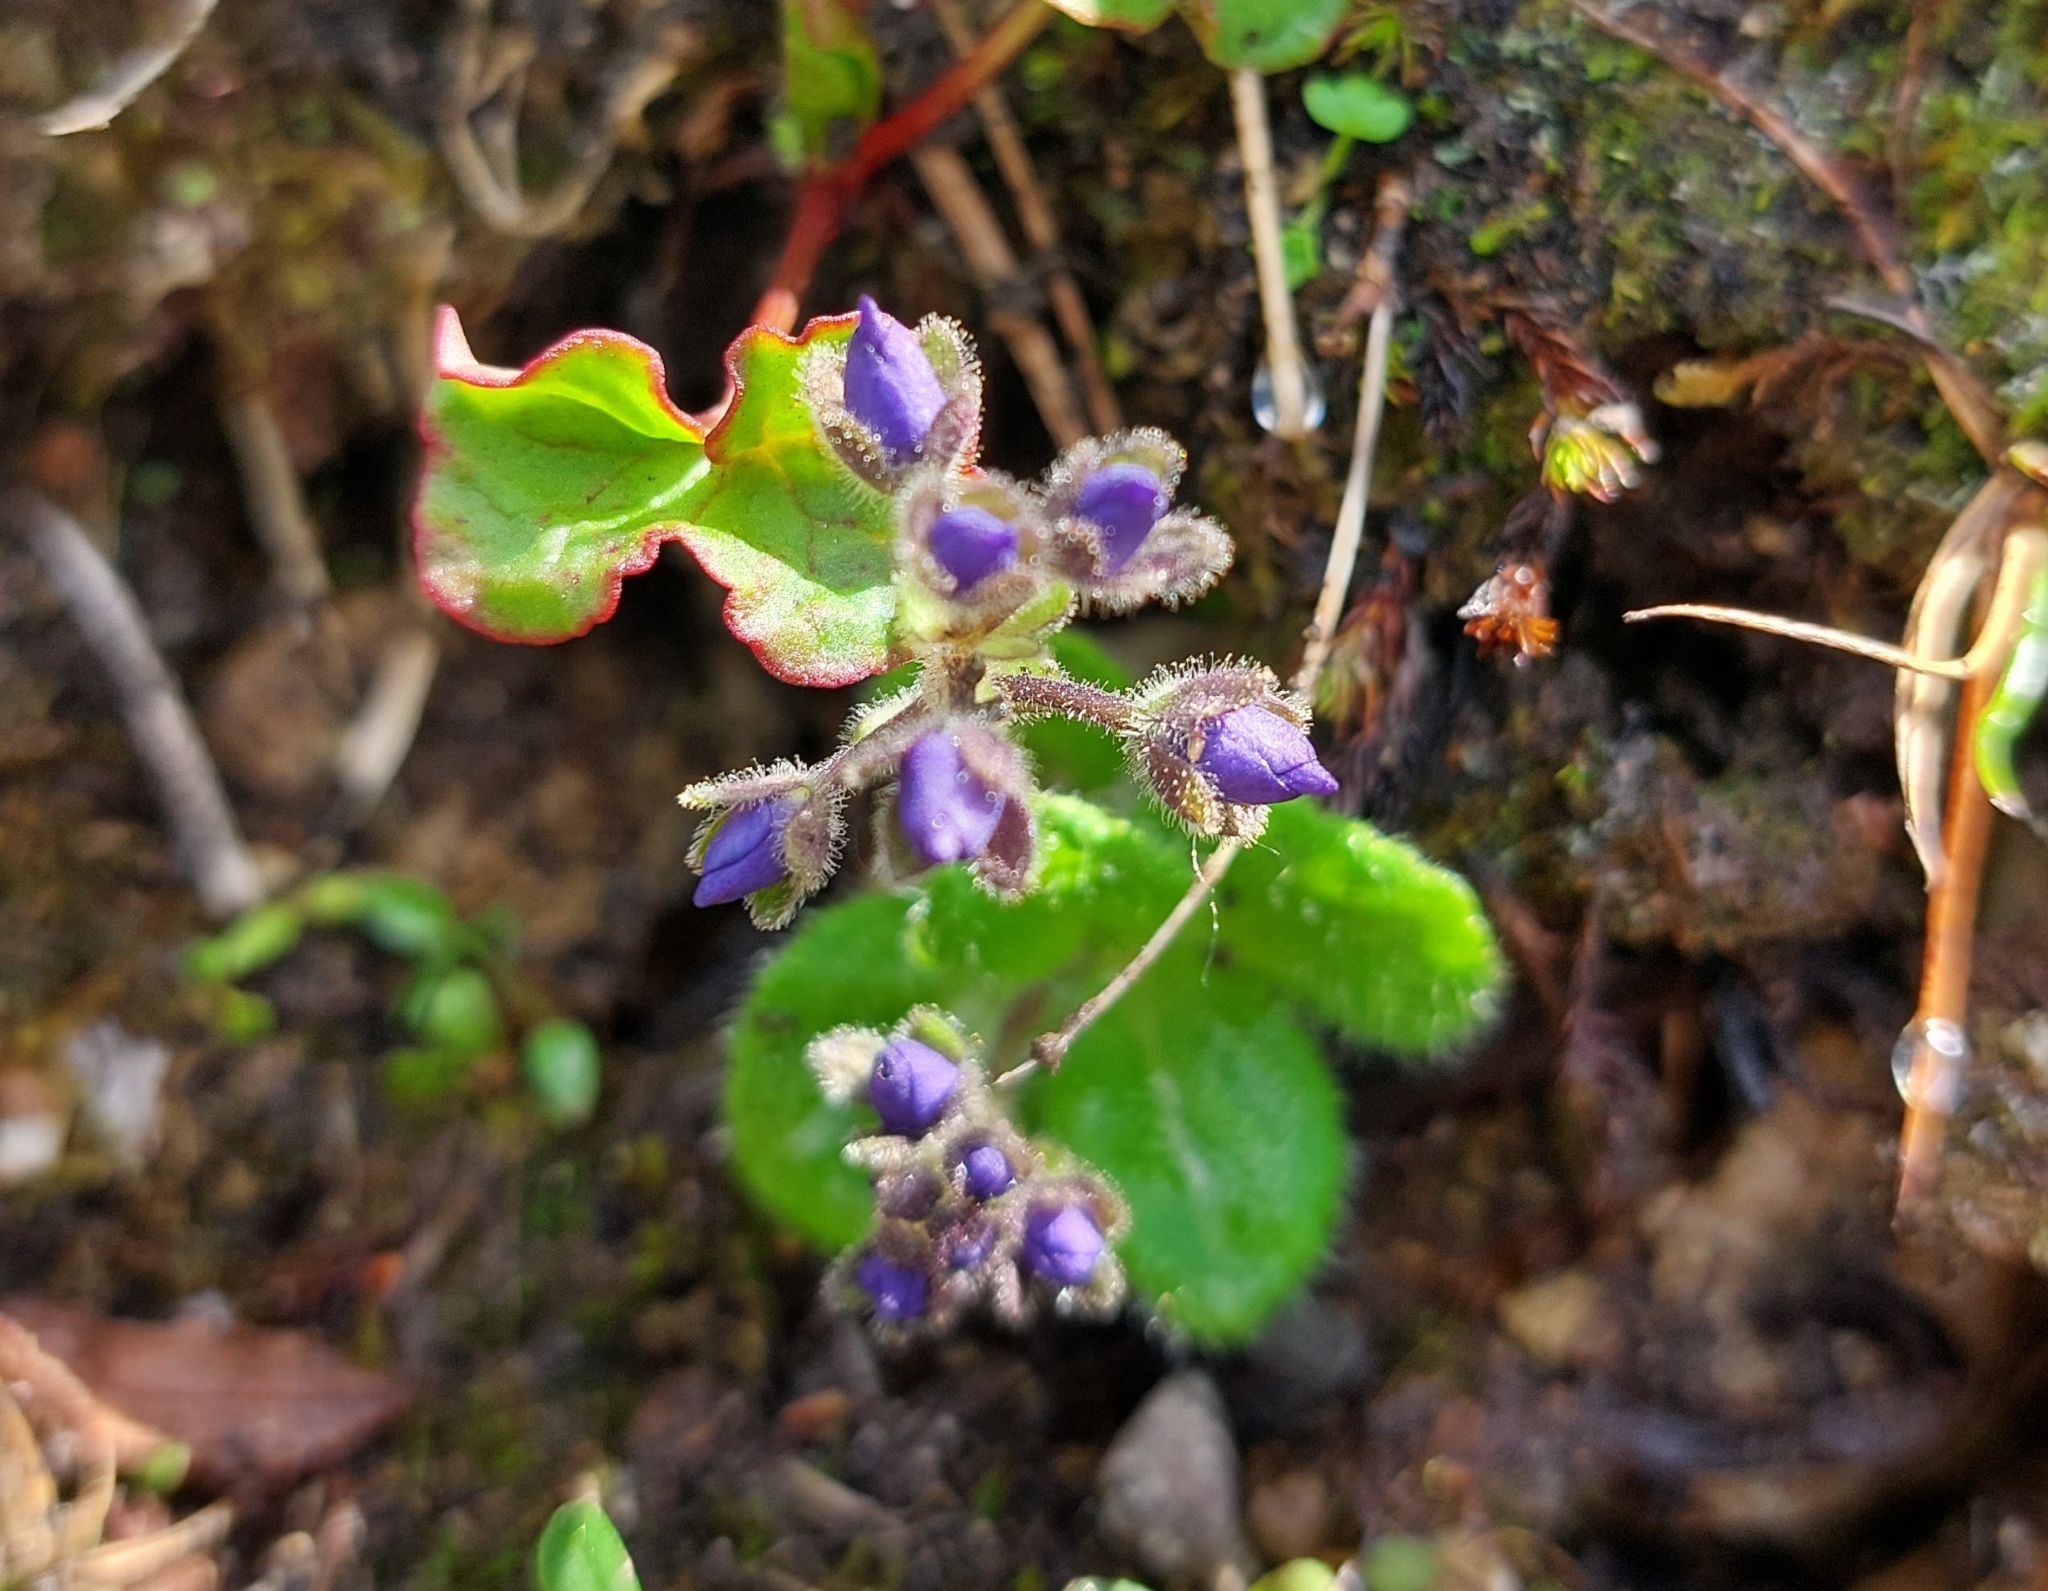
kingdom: Plantae
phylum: Tracheophyta
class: Magnoliopsida
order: Lamiales
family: Plantaginaceae
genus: Veronica
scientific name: Veronica grandiflora
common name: Large-flower speedwell
